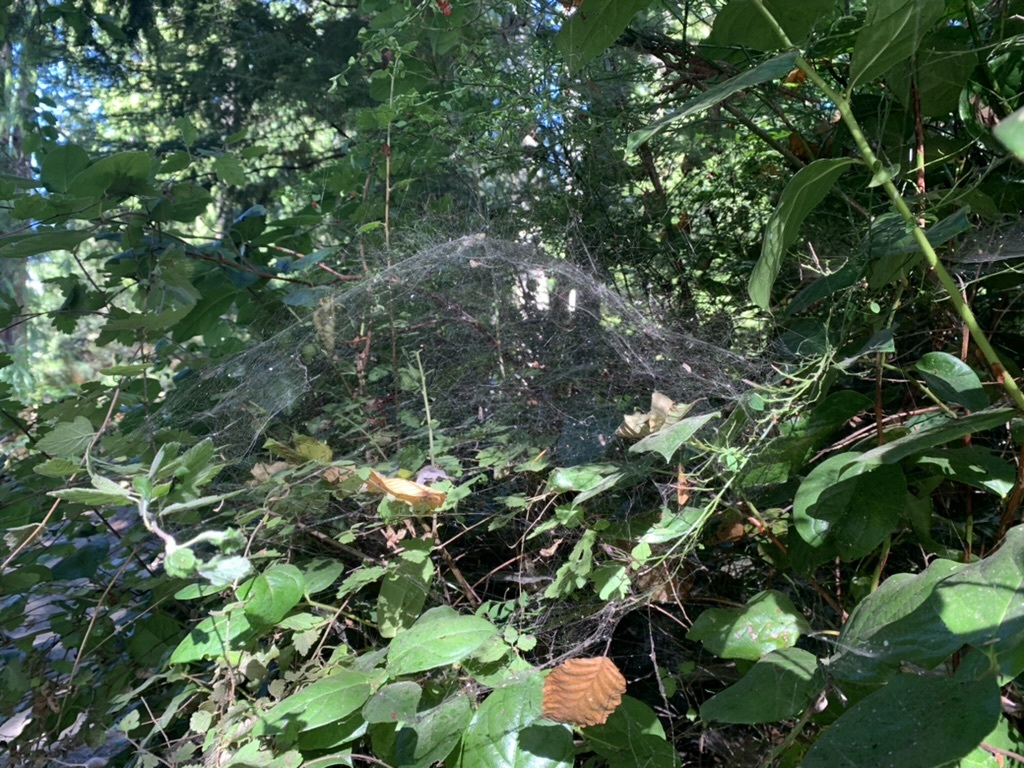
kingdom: Animalia
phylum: Arthropoda
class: Arachnida
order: Araneae
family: Linyphiidae
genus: Neriene
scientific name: Neriene litigiosa
